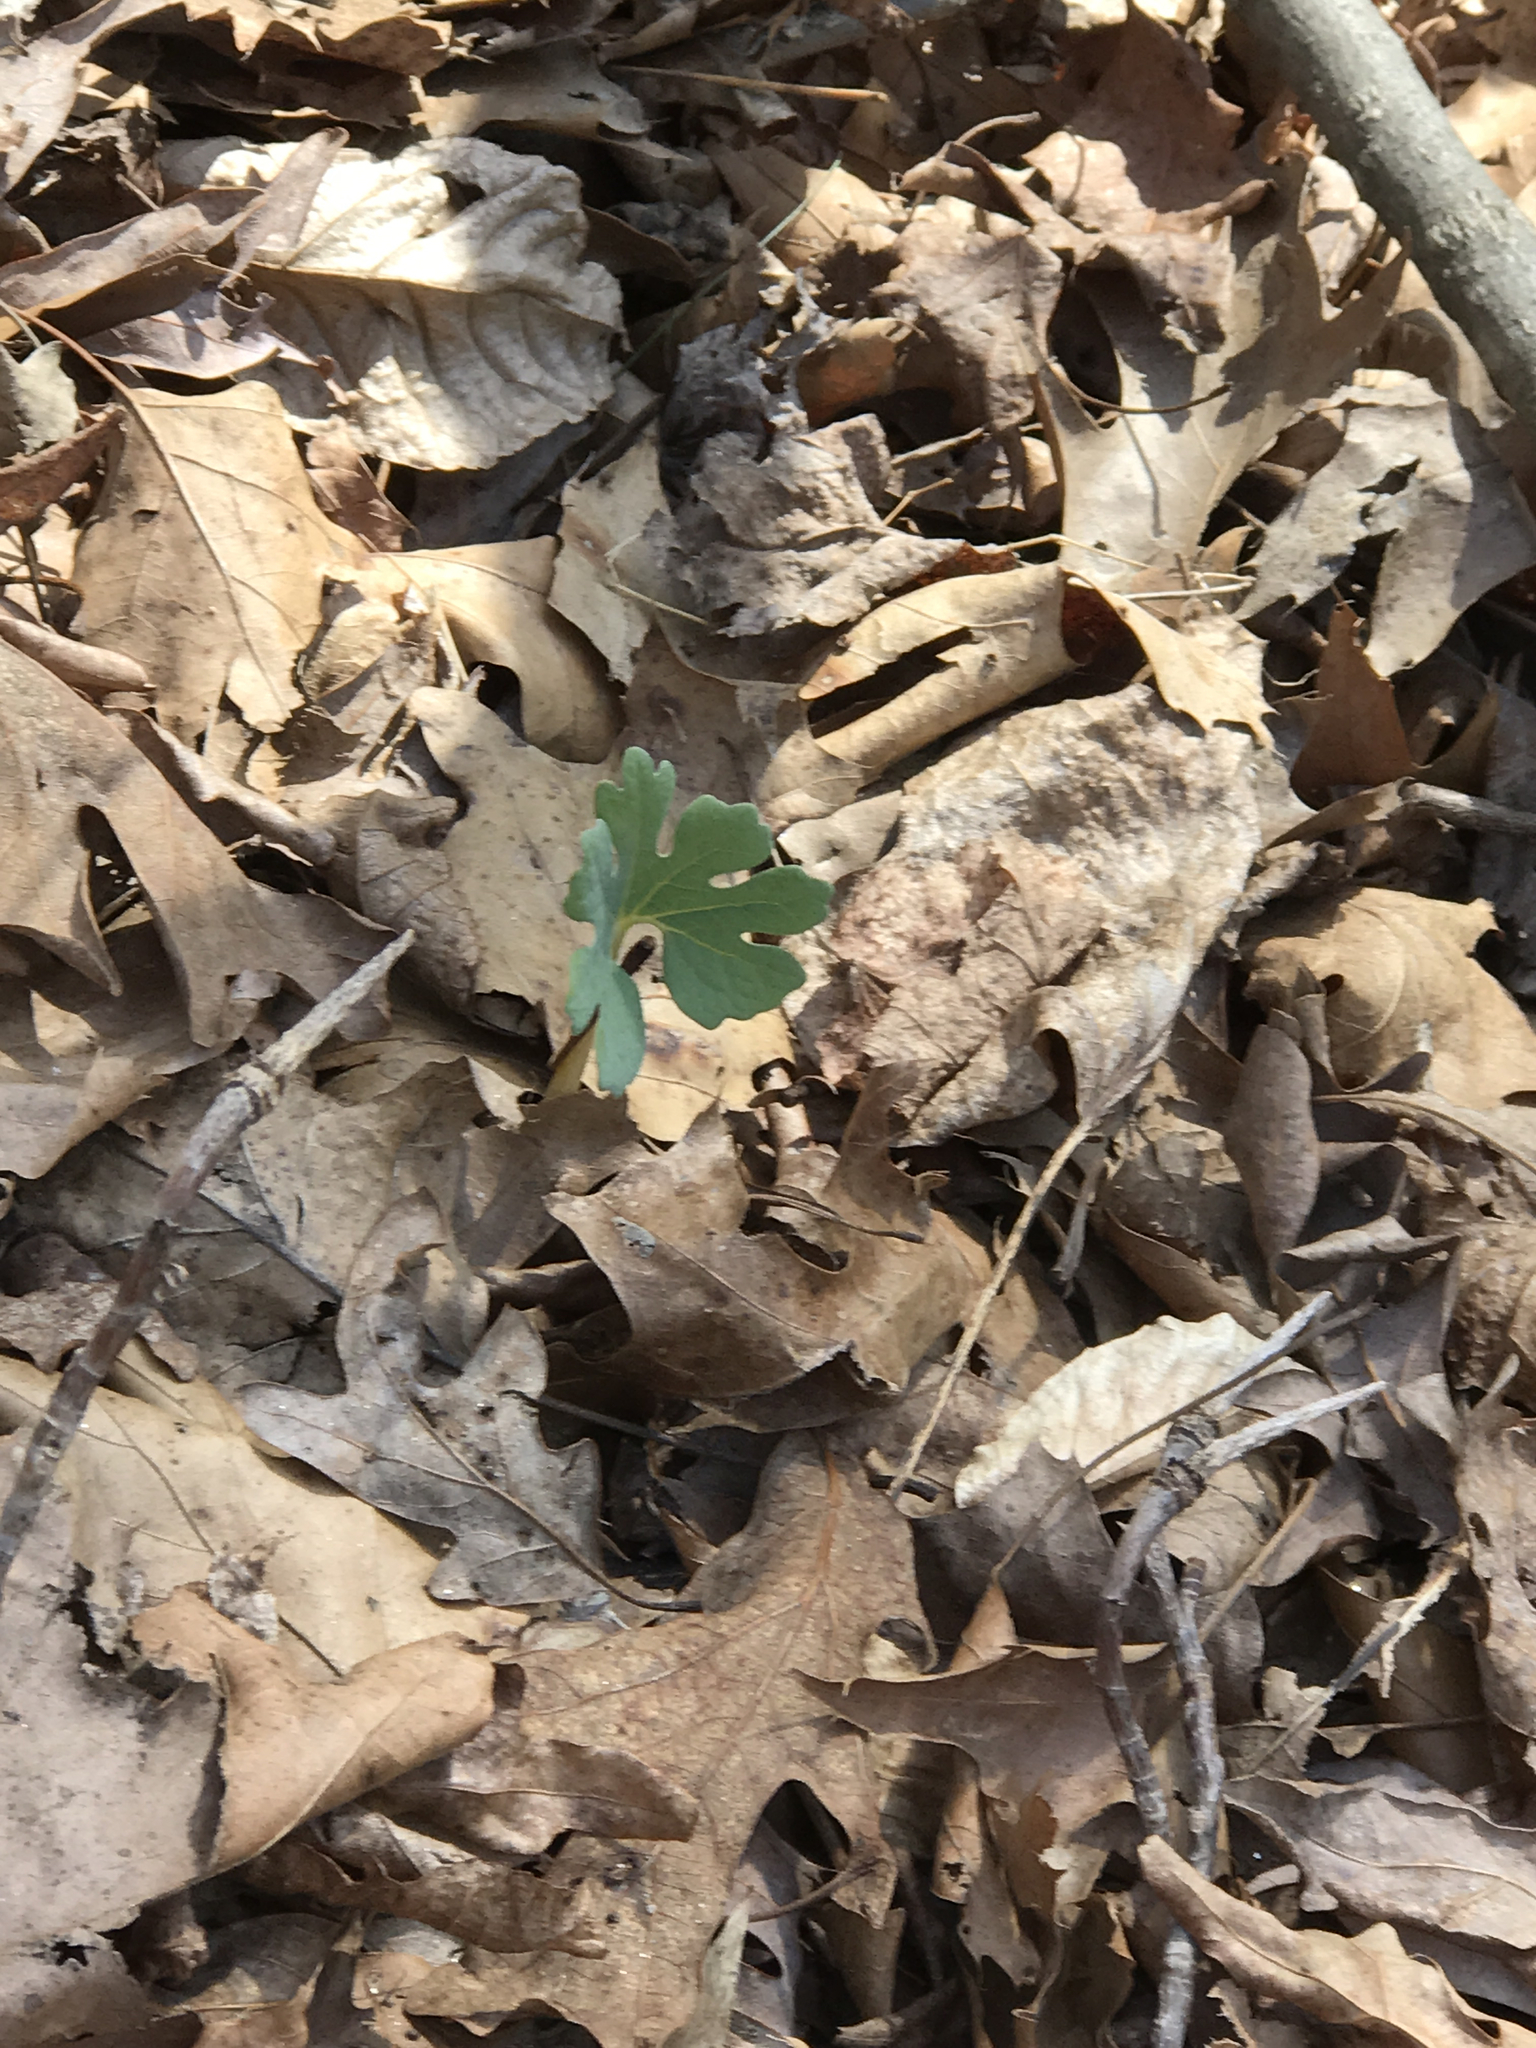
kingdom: Plantae
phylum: Tracheophyta
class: Magnoliopsida
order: Ranunculales
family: Papaveraceae
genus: Sanguinaria
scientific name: Sanguinaria canadensis
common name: Bloodroot
